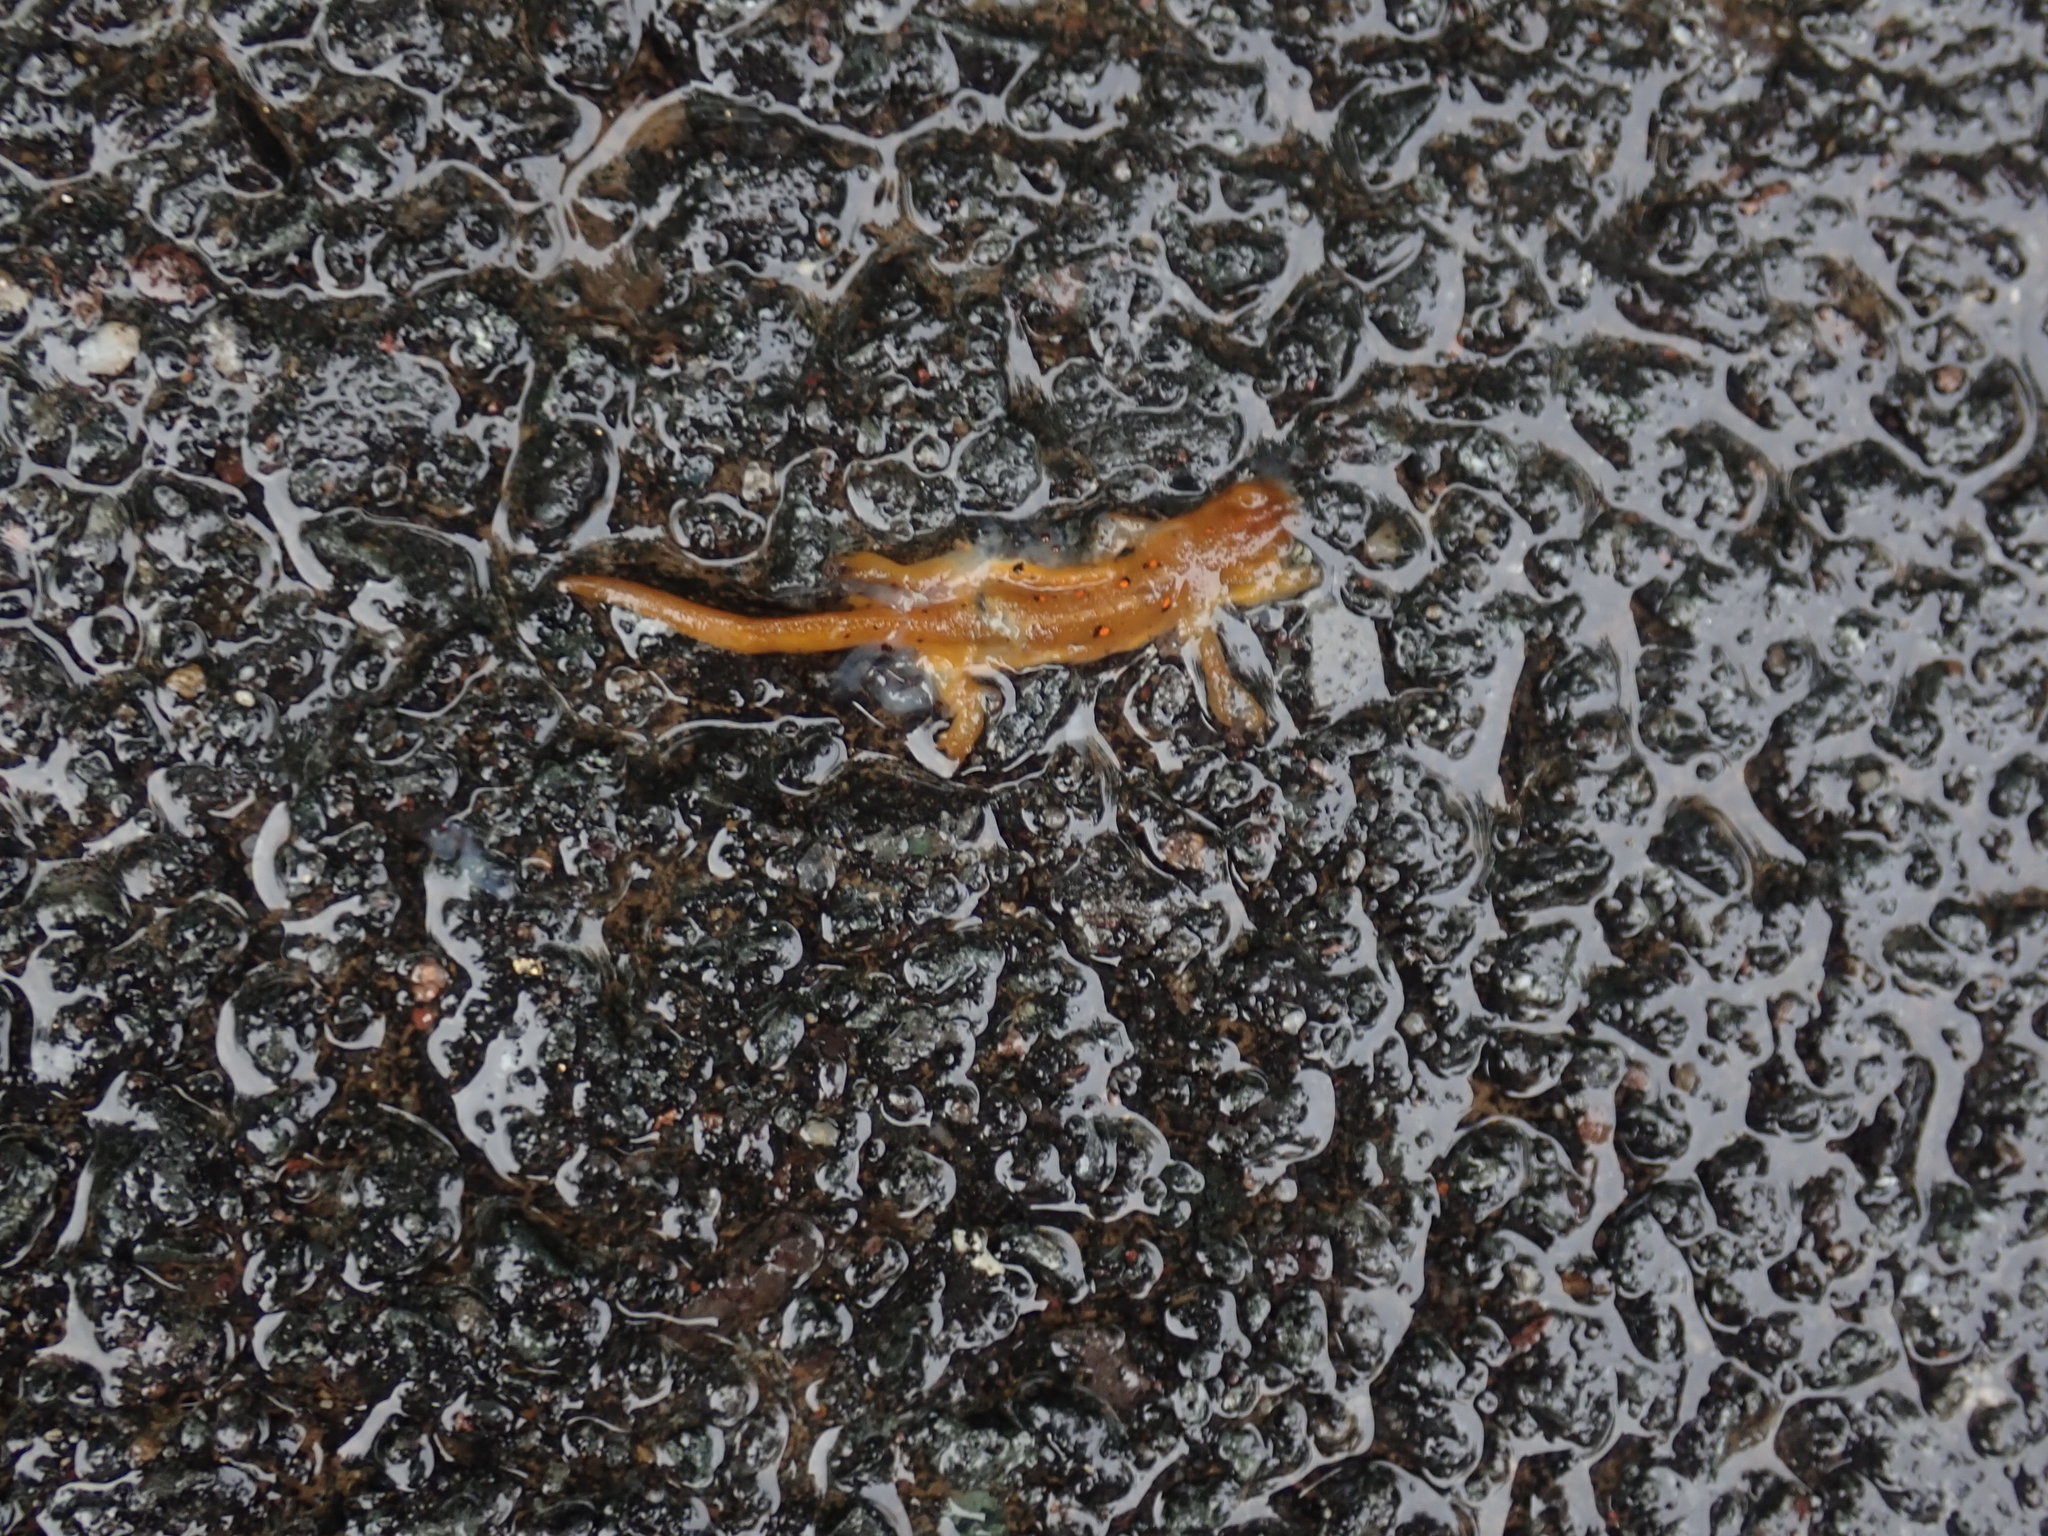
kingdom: Animalia
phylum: Chordata
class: Amphibia
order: Caudata
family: Salamandridae
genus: Notophthalmus
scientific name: Notophthalmus viridescens
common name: Eastern newt
